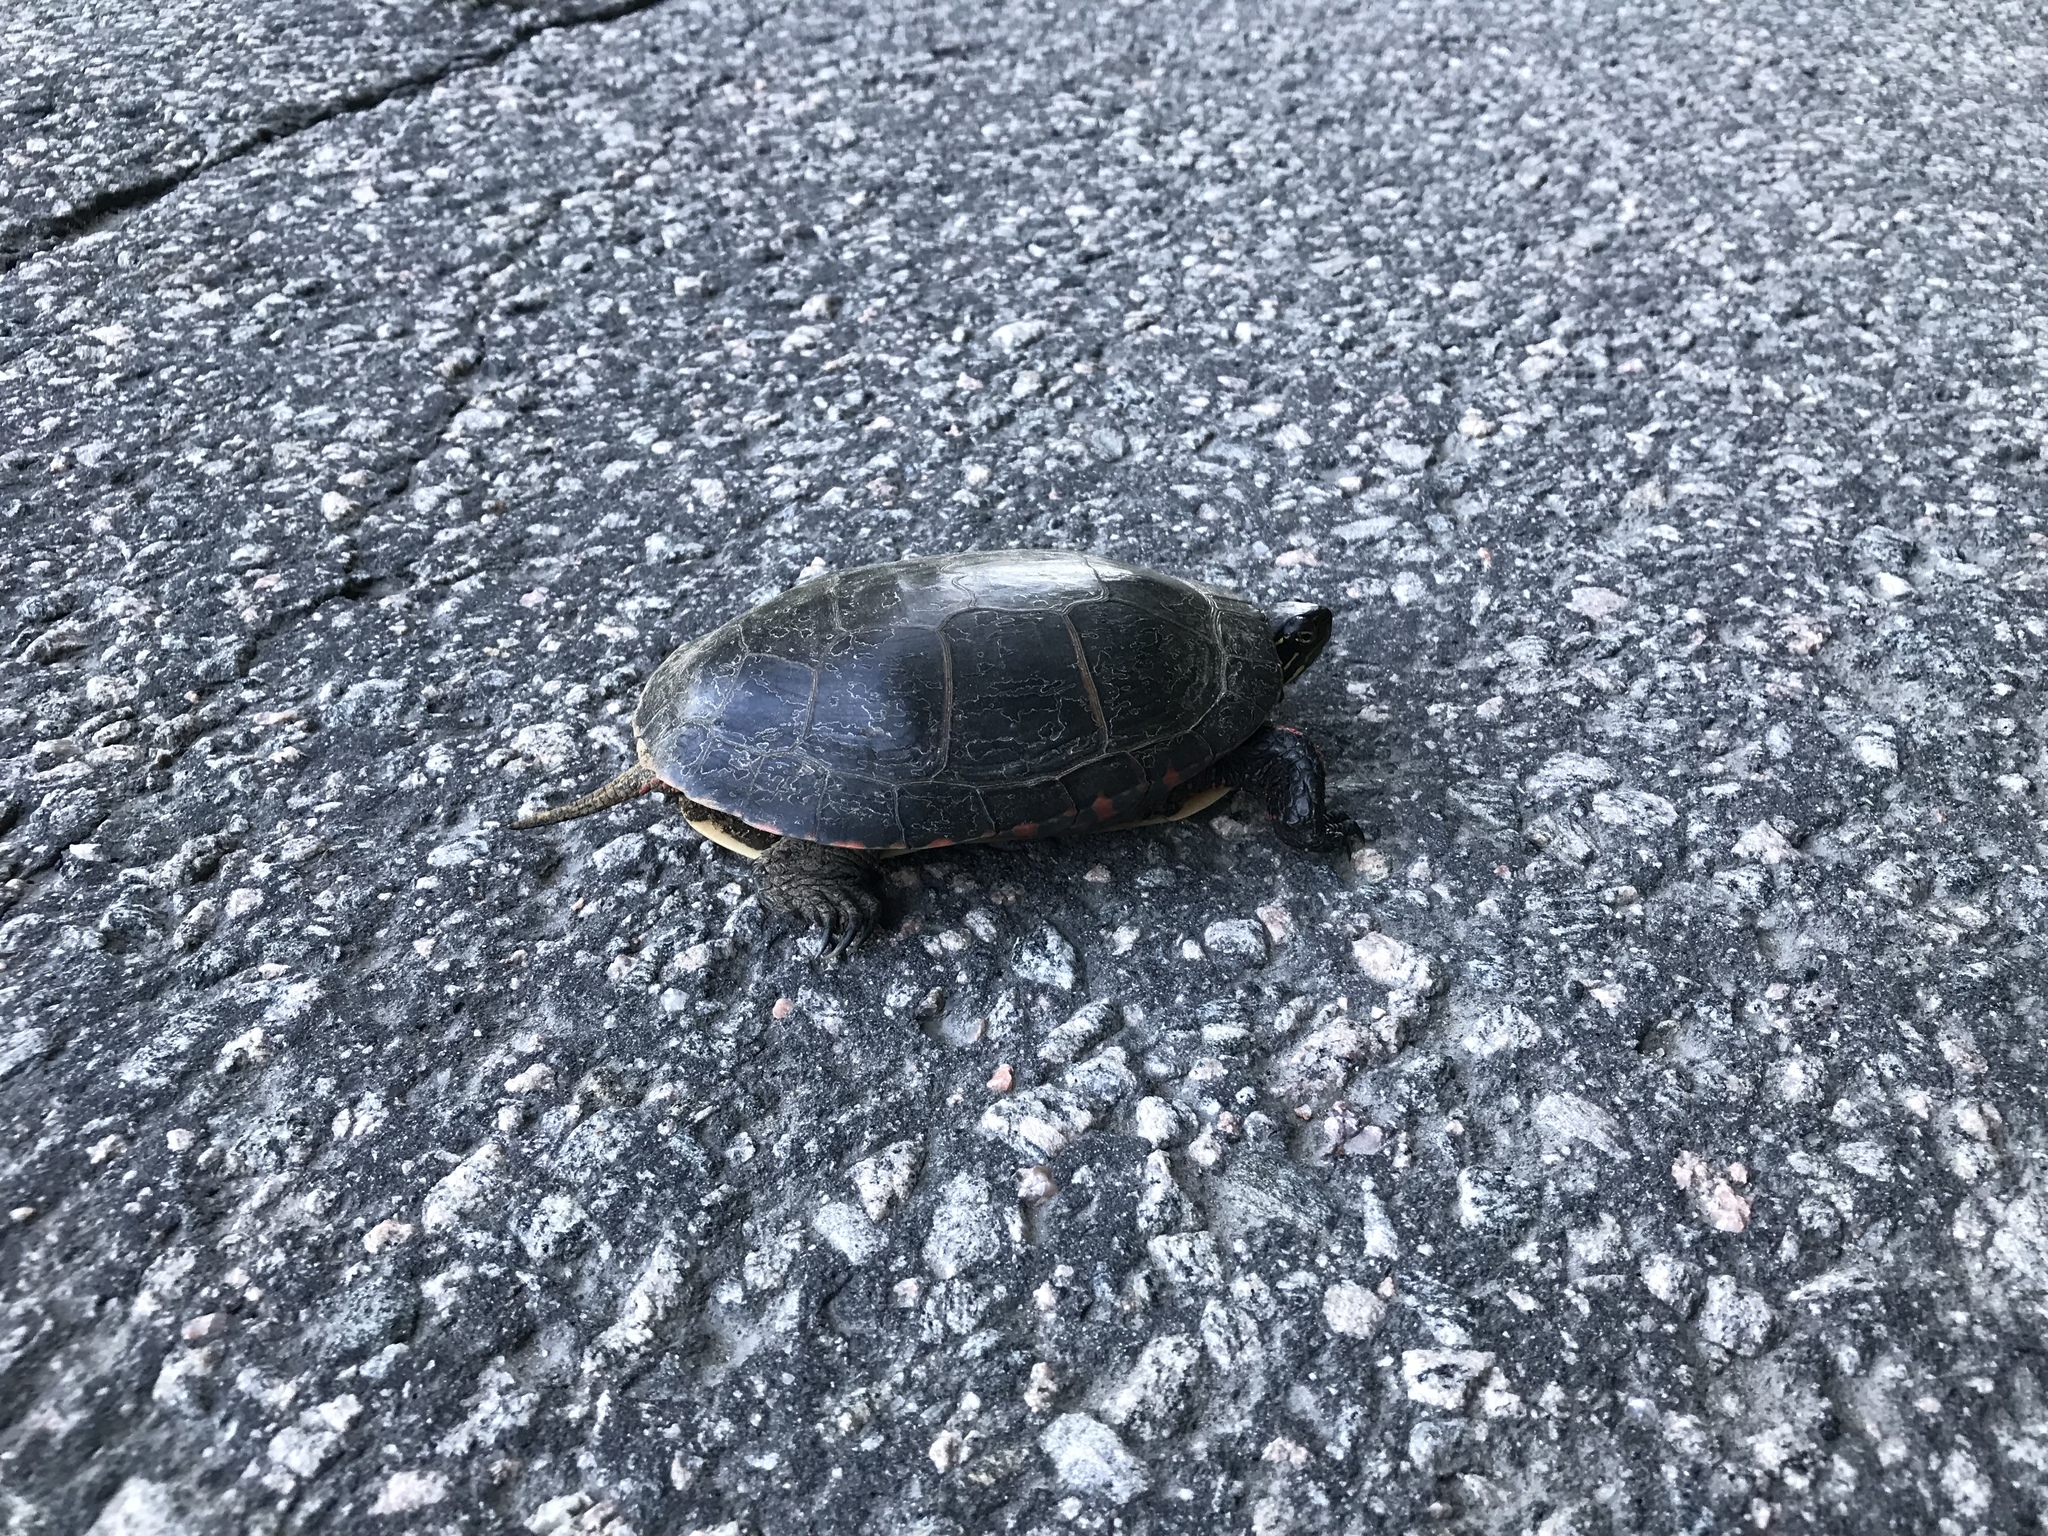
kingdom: Animalia
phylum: Chordata
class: Testudines
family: Emydidae
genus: Chrysemys
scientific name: Chrysemys picta
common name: Painted turtle
